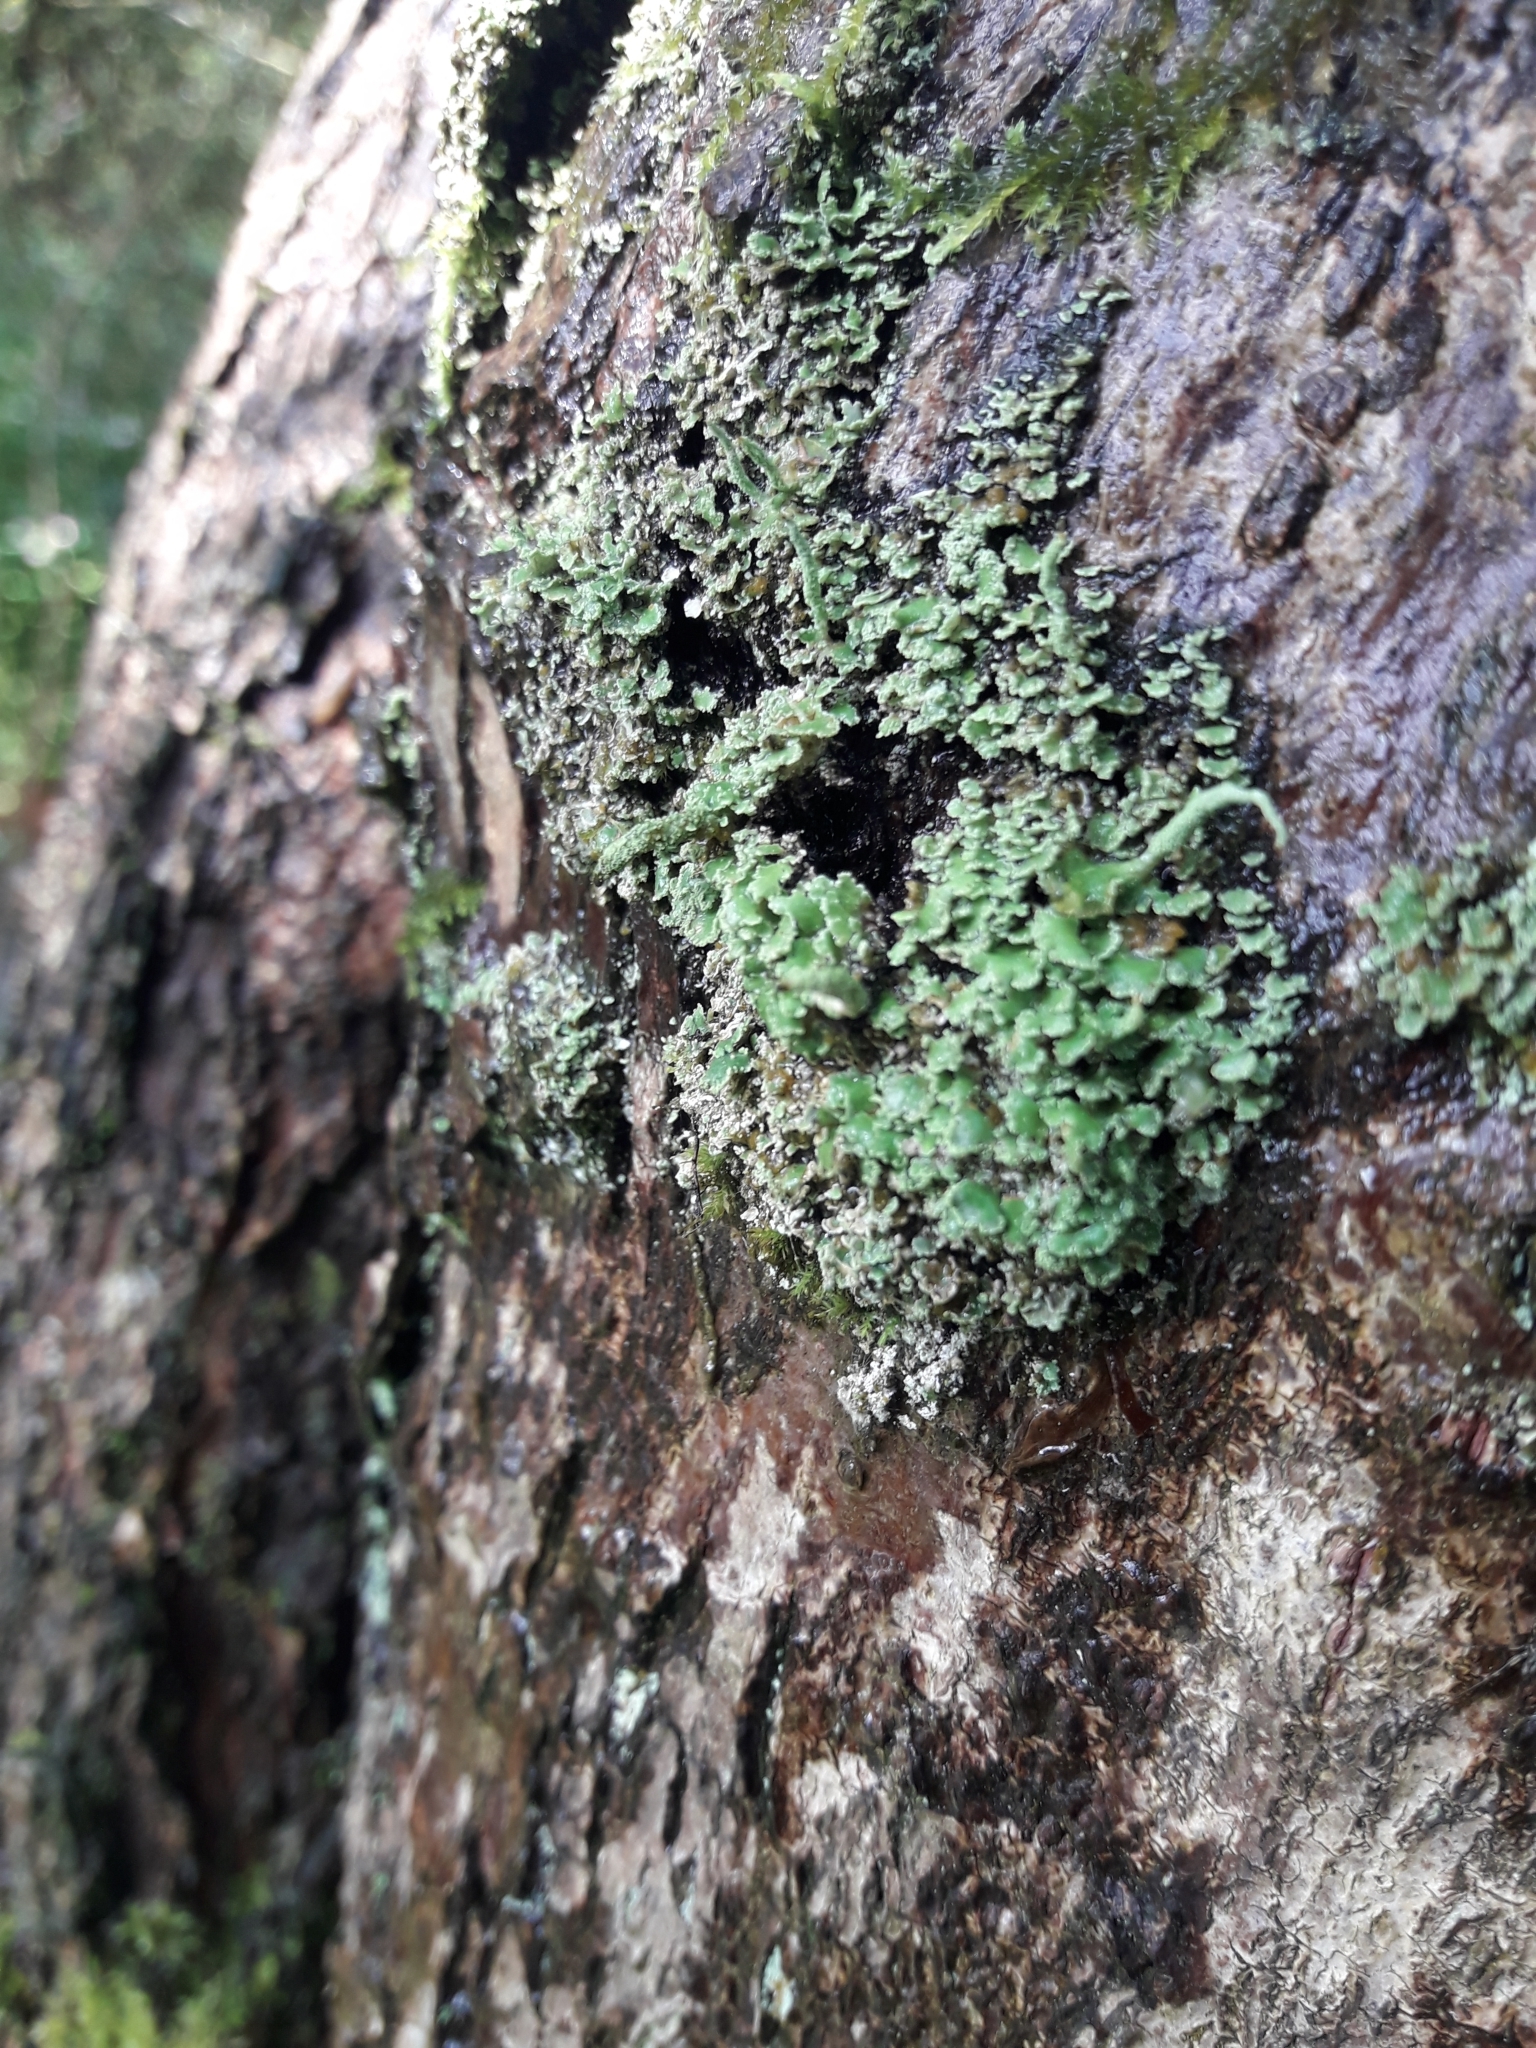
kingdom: Fungi
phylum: Ascomycota
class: Lecanoromycetes
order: Lecanorales
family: Cladoniaceae
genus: Cladonia
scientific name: Cladonia coniocraea
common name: Common powderhorn
